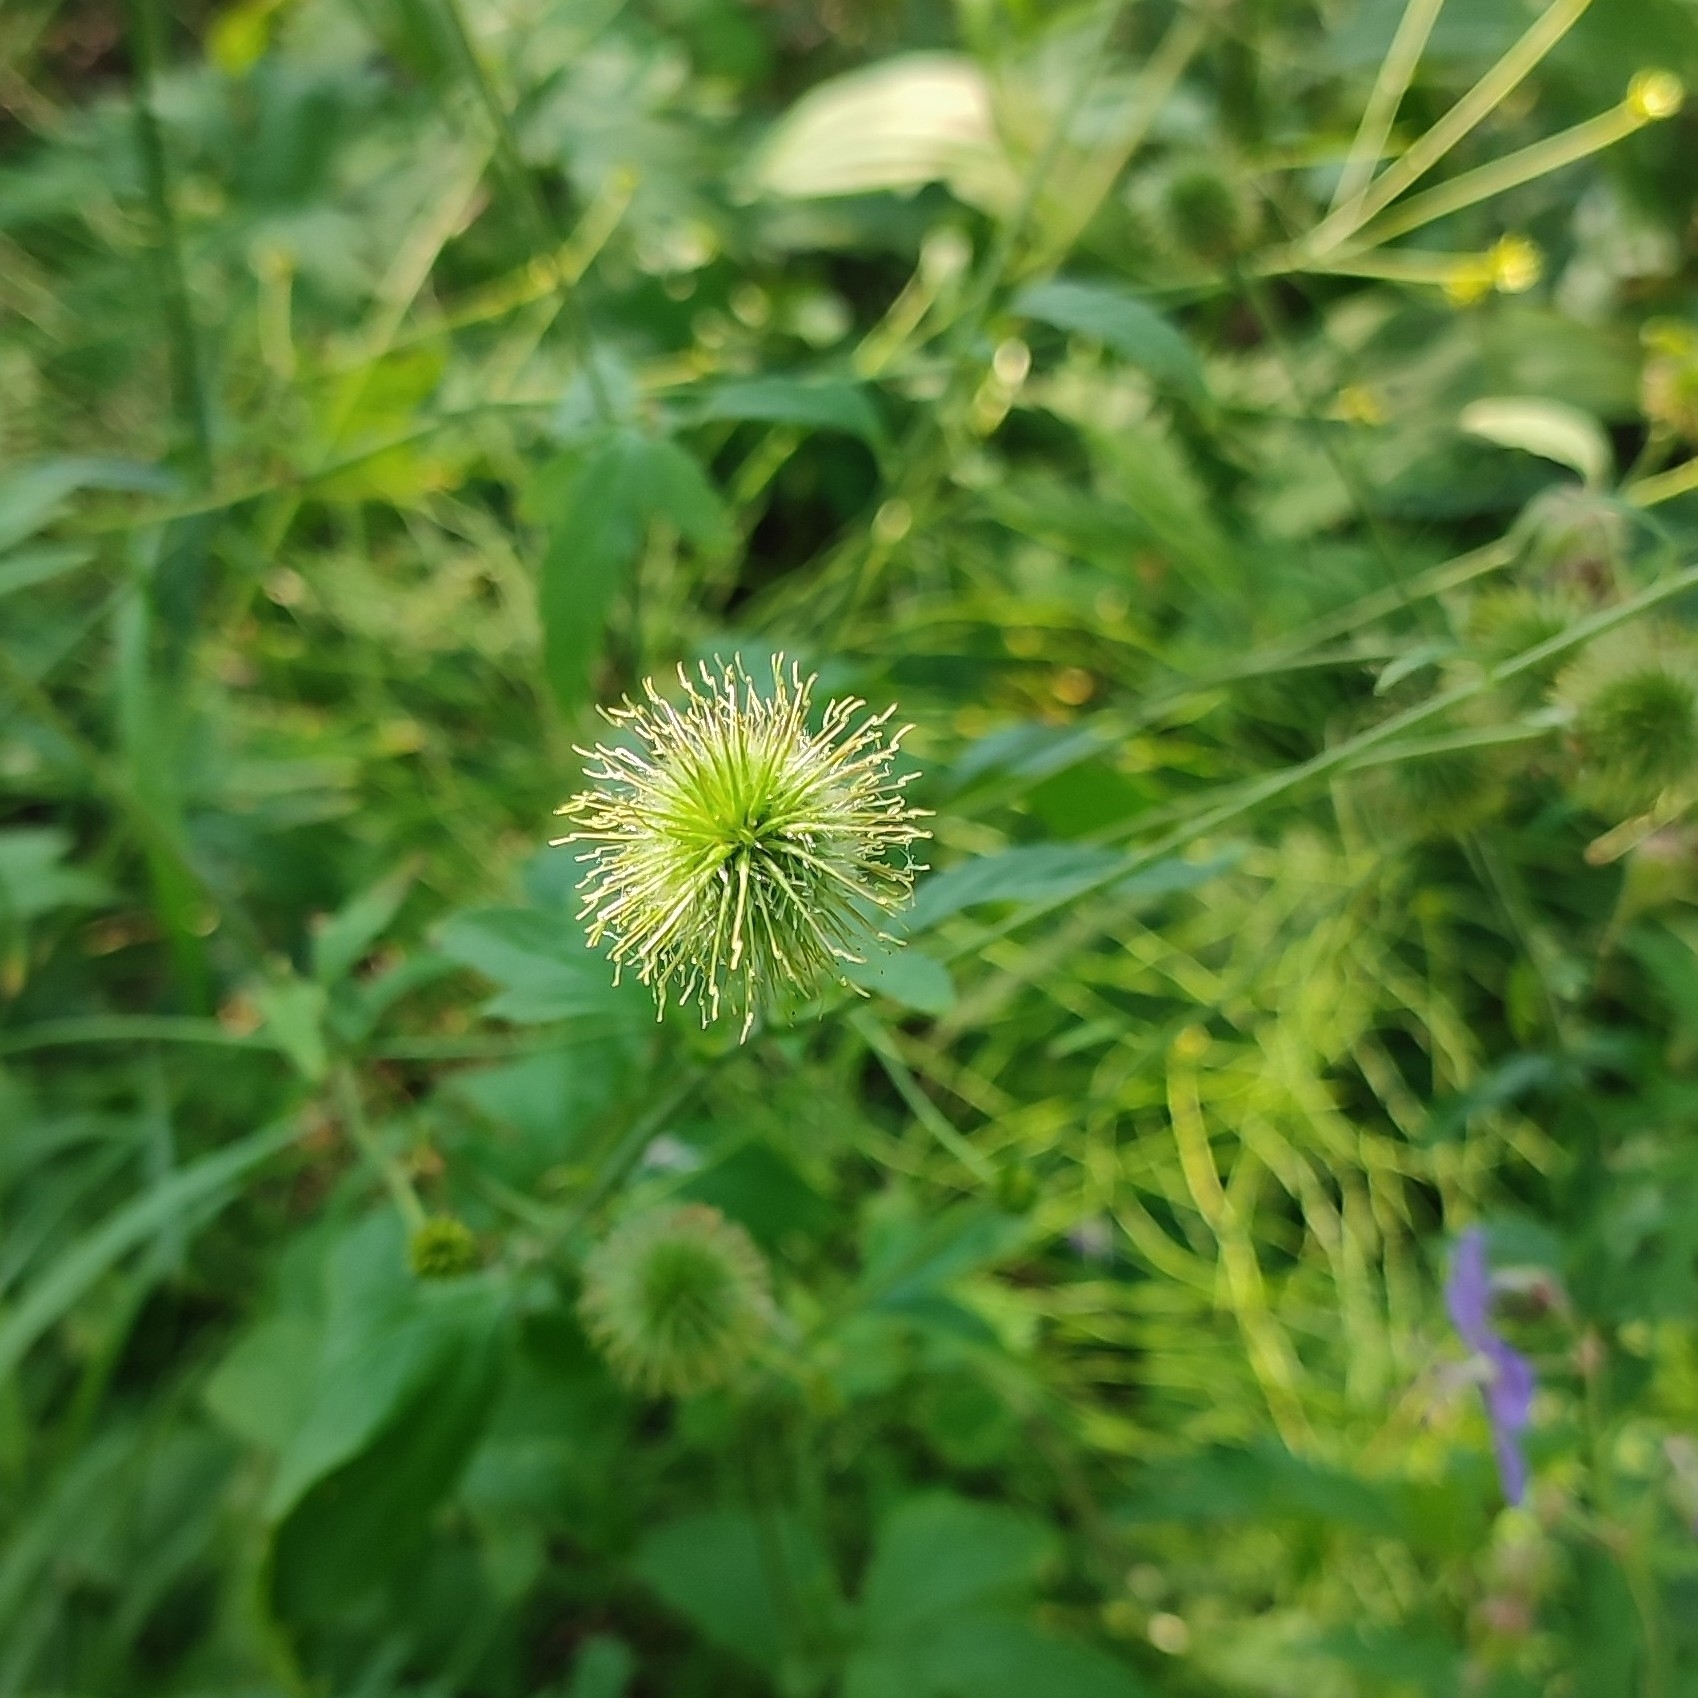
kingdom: Plantae
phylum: Tracheophyta
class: Magnoliopsida
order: Rosales
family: Rosaceae
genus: Geum
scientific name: Geum aleppicum
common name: Yellow avens
